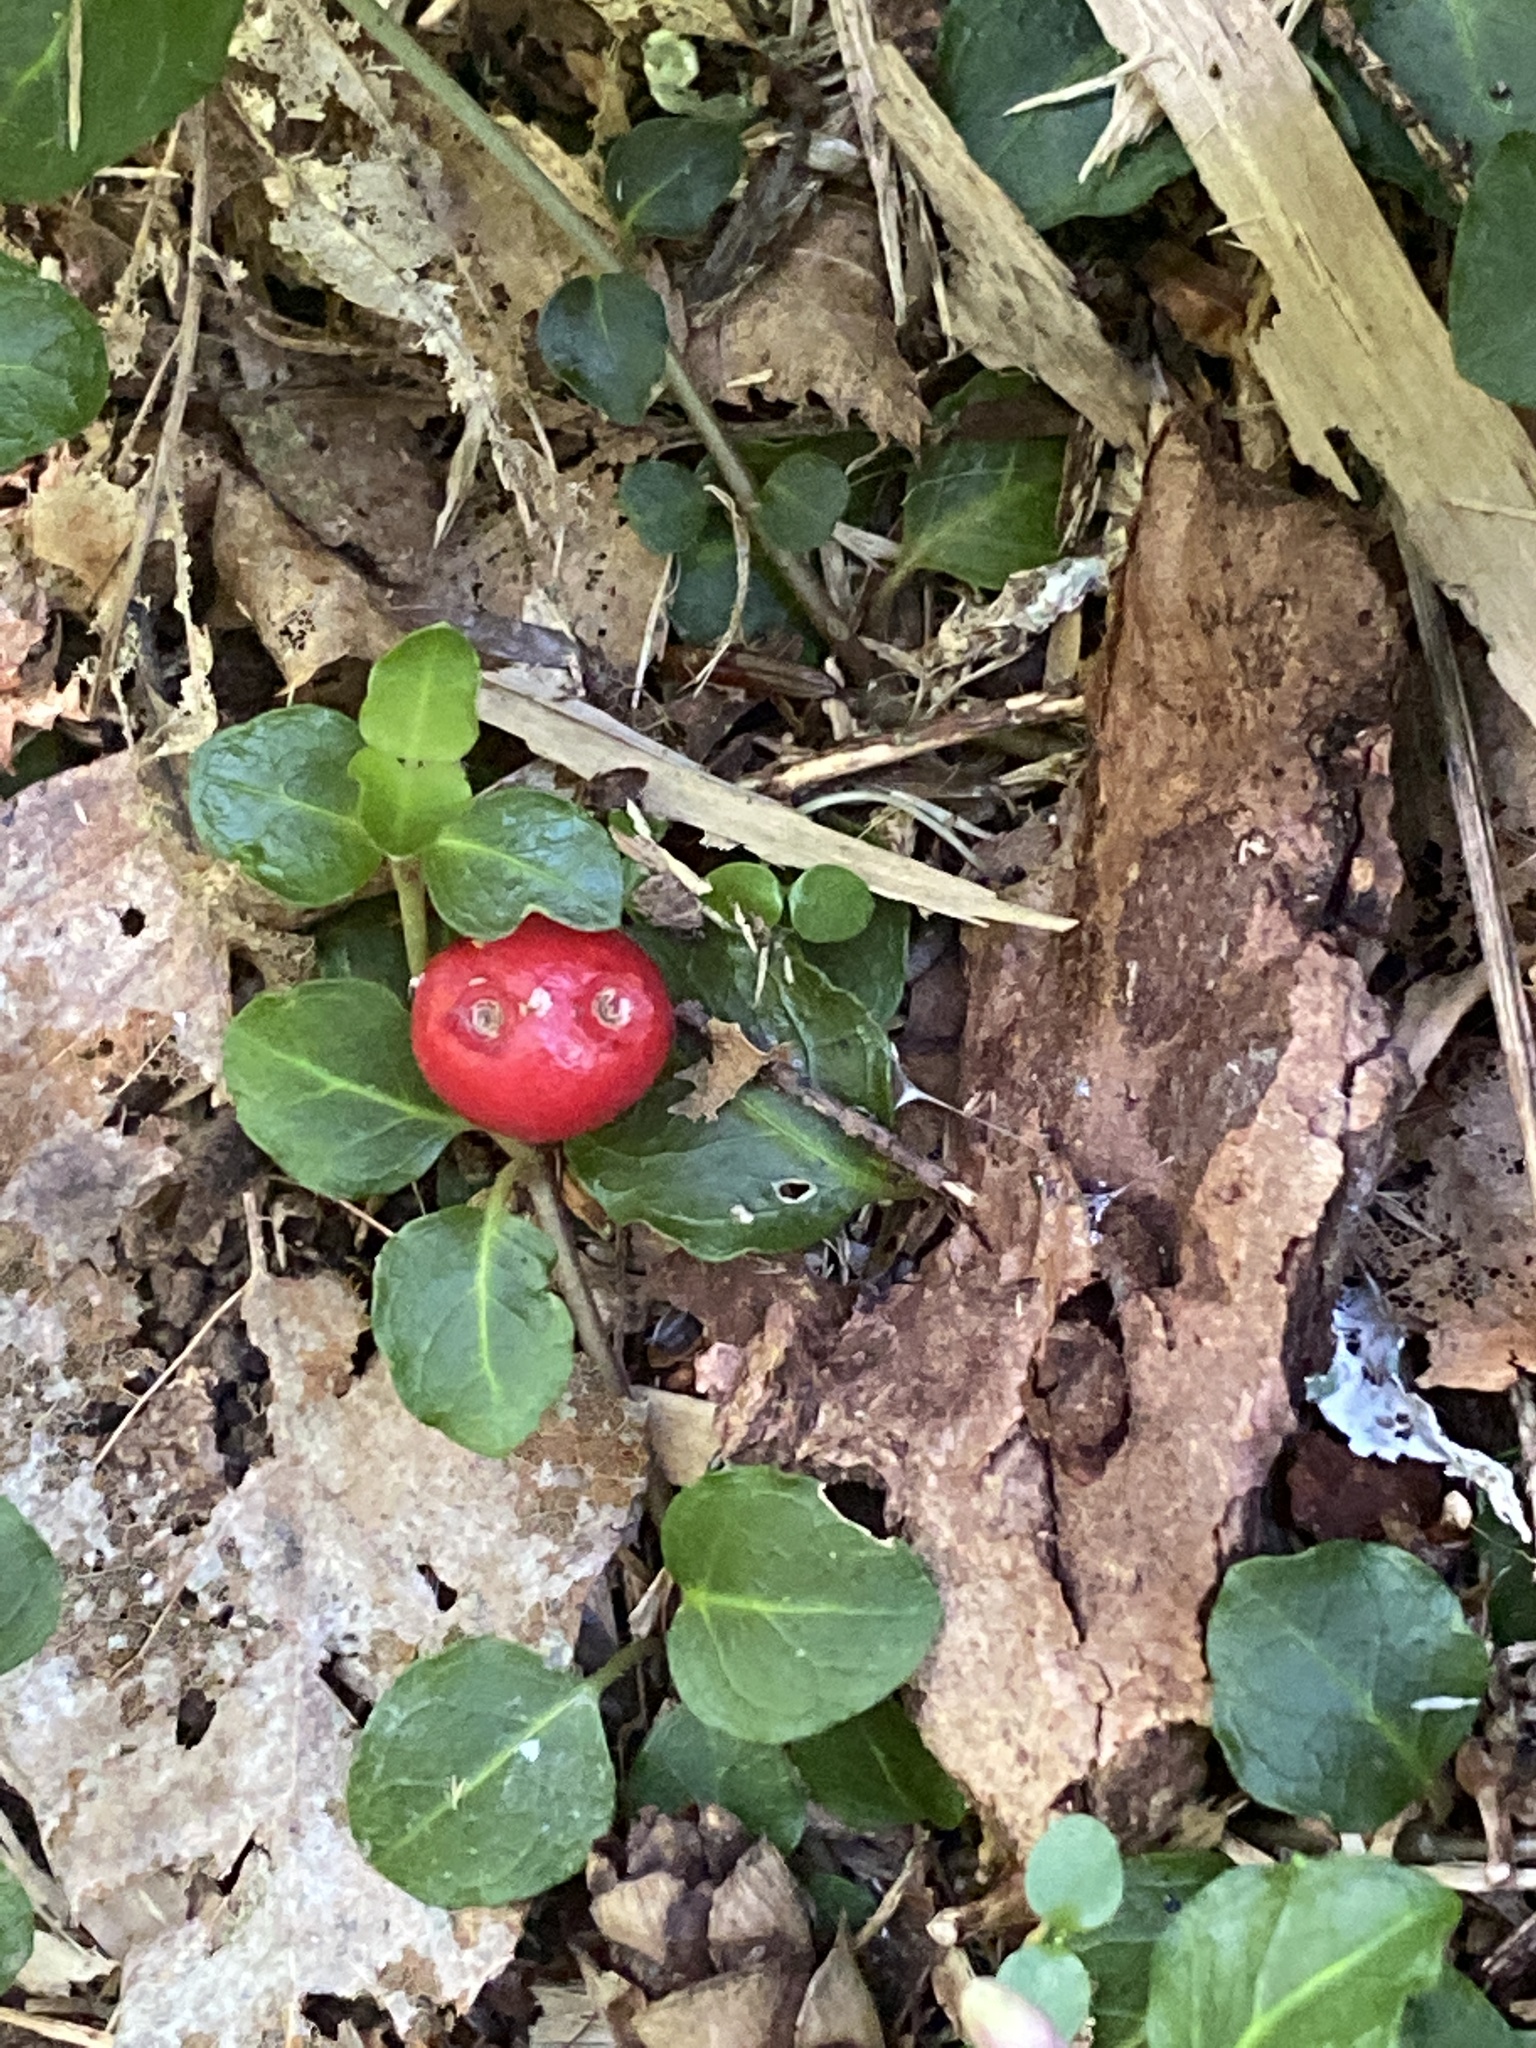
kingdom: Plantae
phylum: Tracheophyta
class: Magnoliopsida
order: Gentianales
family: Rubiaceae
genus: Mitchella
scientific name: Mitchella repens
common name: Partridge-berry
